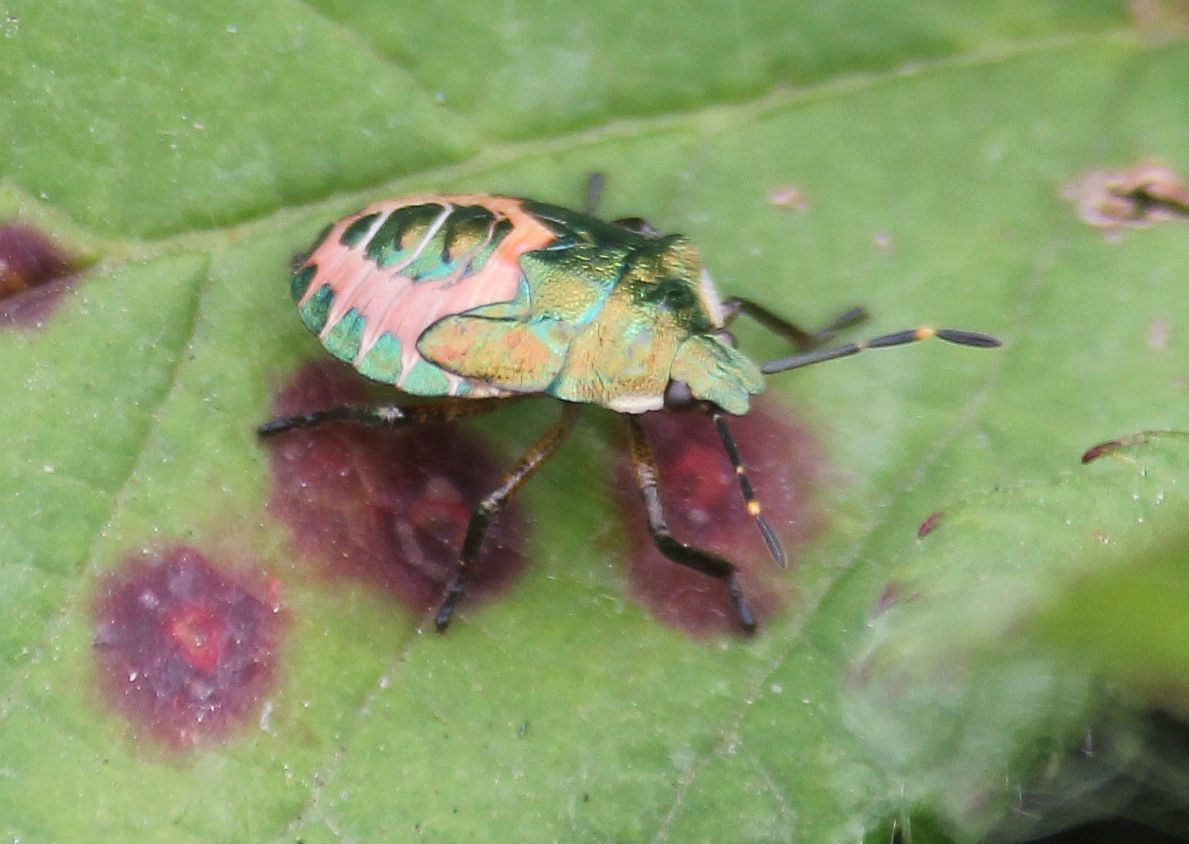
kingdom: Animalia
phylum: Arthropoda
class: Insecta
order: Hemiptera
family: Pentatomidae
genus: Troilus
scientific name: Troilus luridus
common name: Bronze shieldbug
